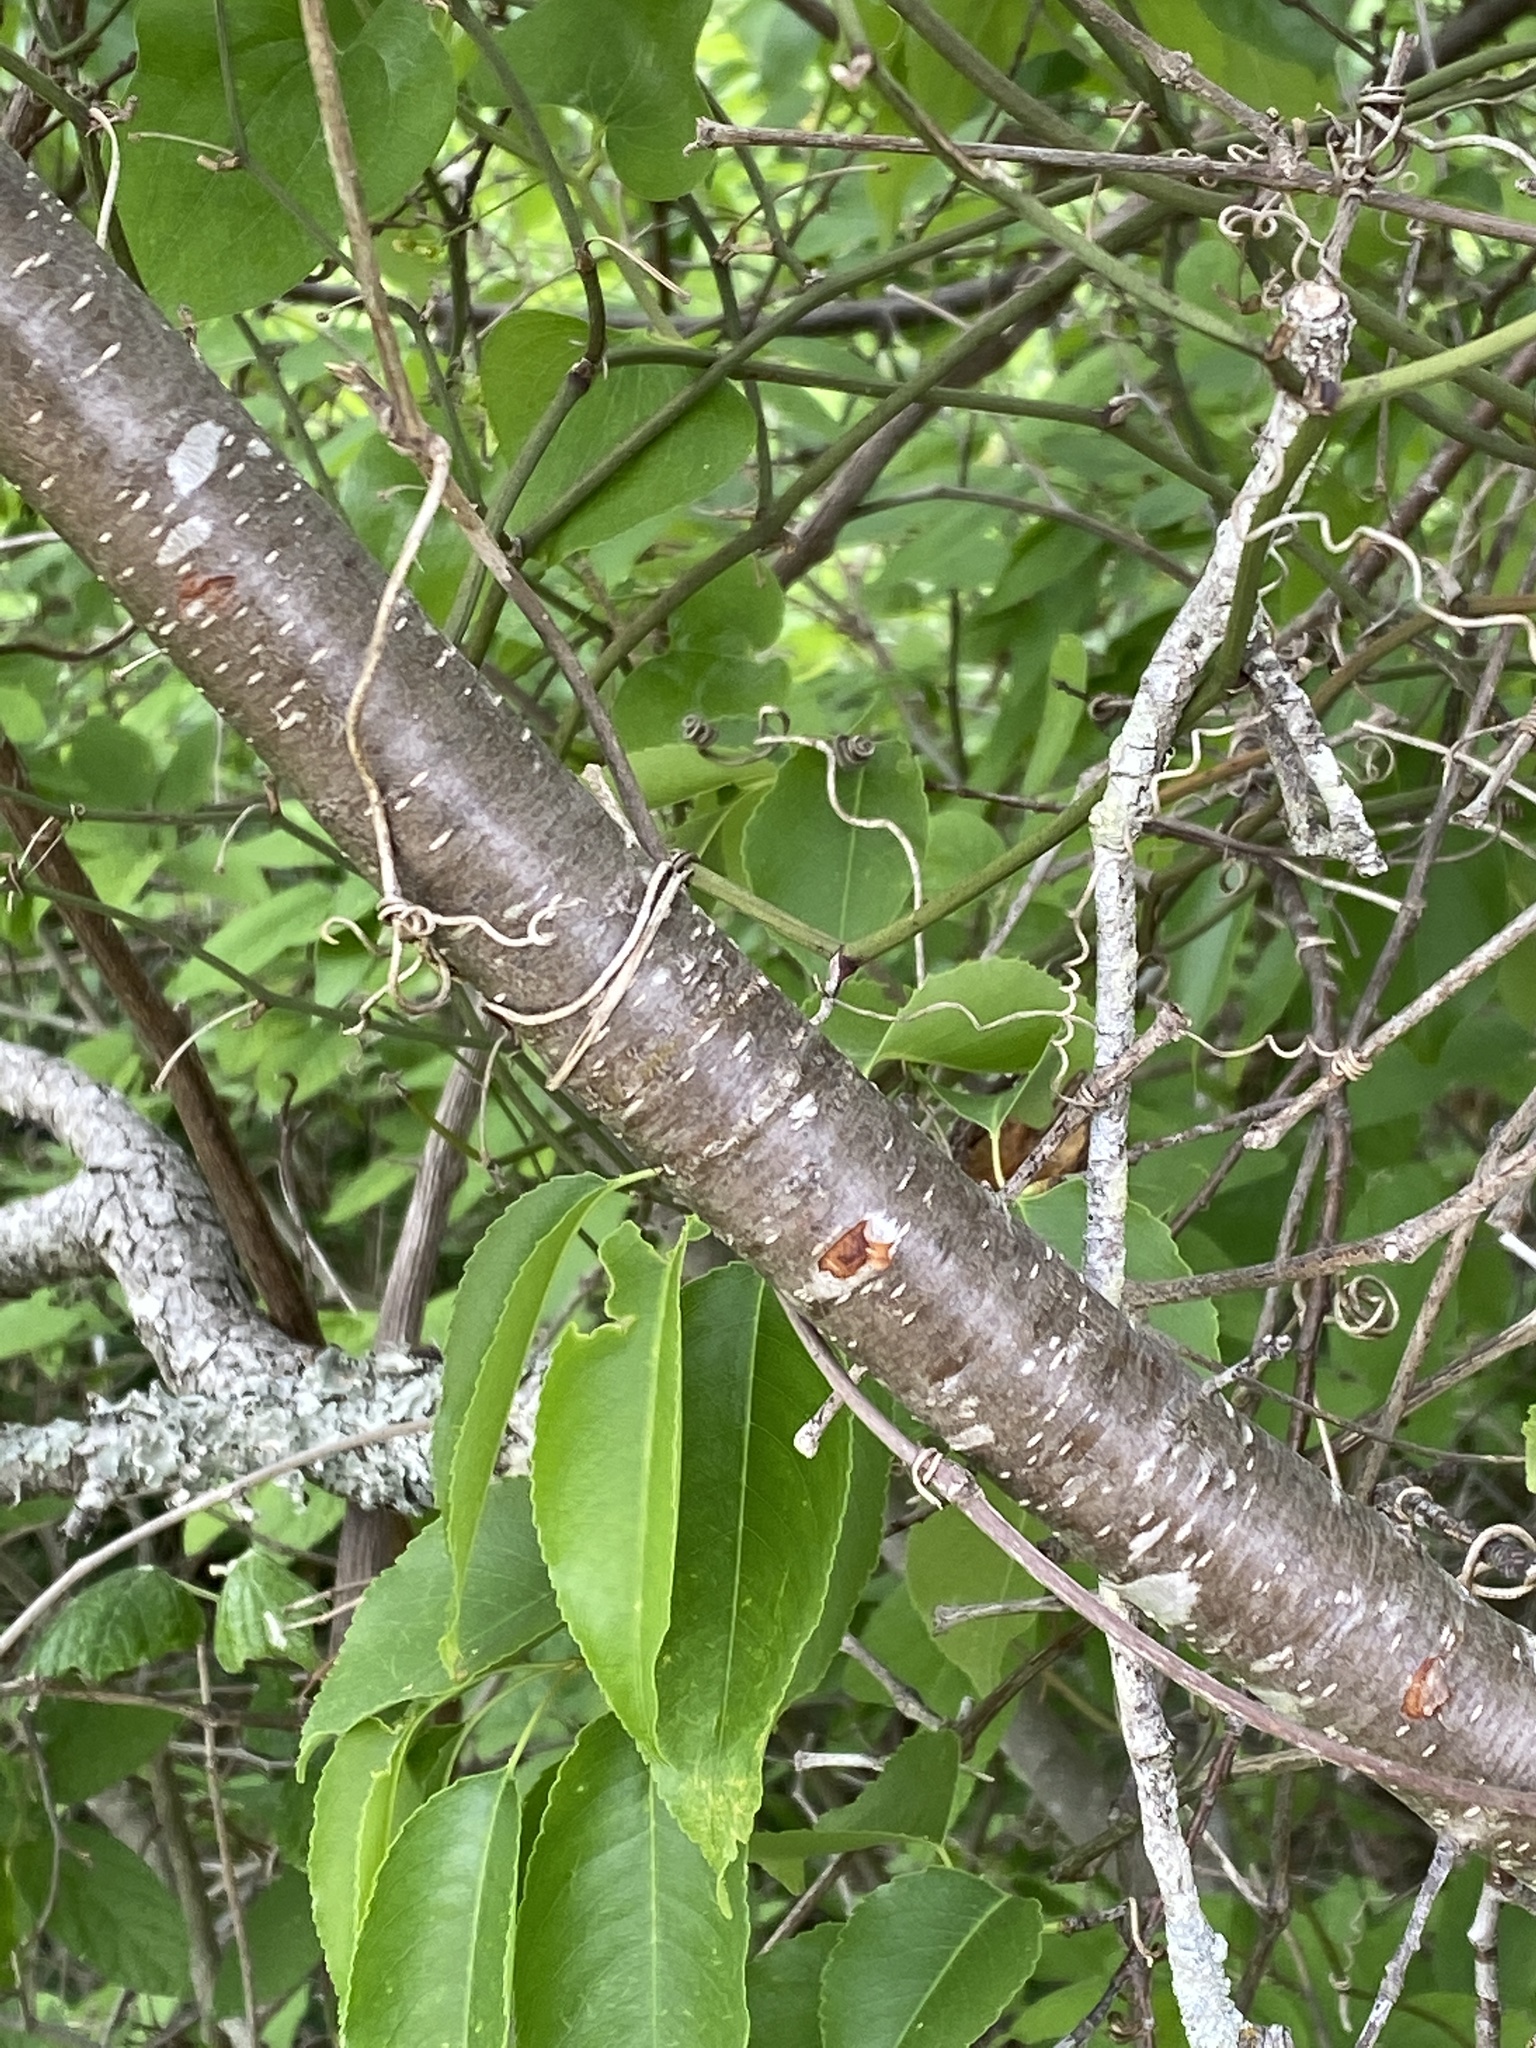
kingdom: Plantae
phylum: Tracheophyta
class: Magnoliopsida
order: Rosales
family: Rosaceae
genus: Prunus
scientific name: Prunus serotina
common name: Black cherry
